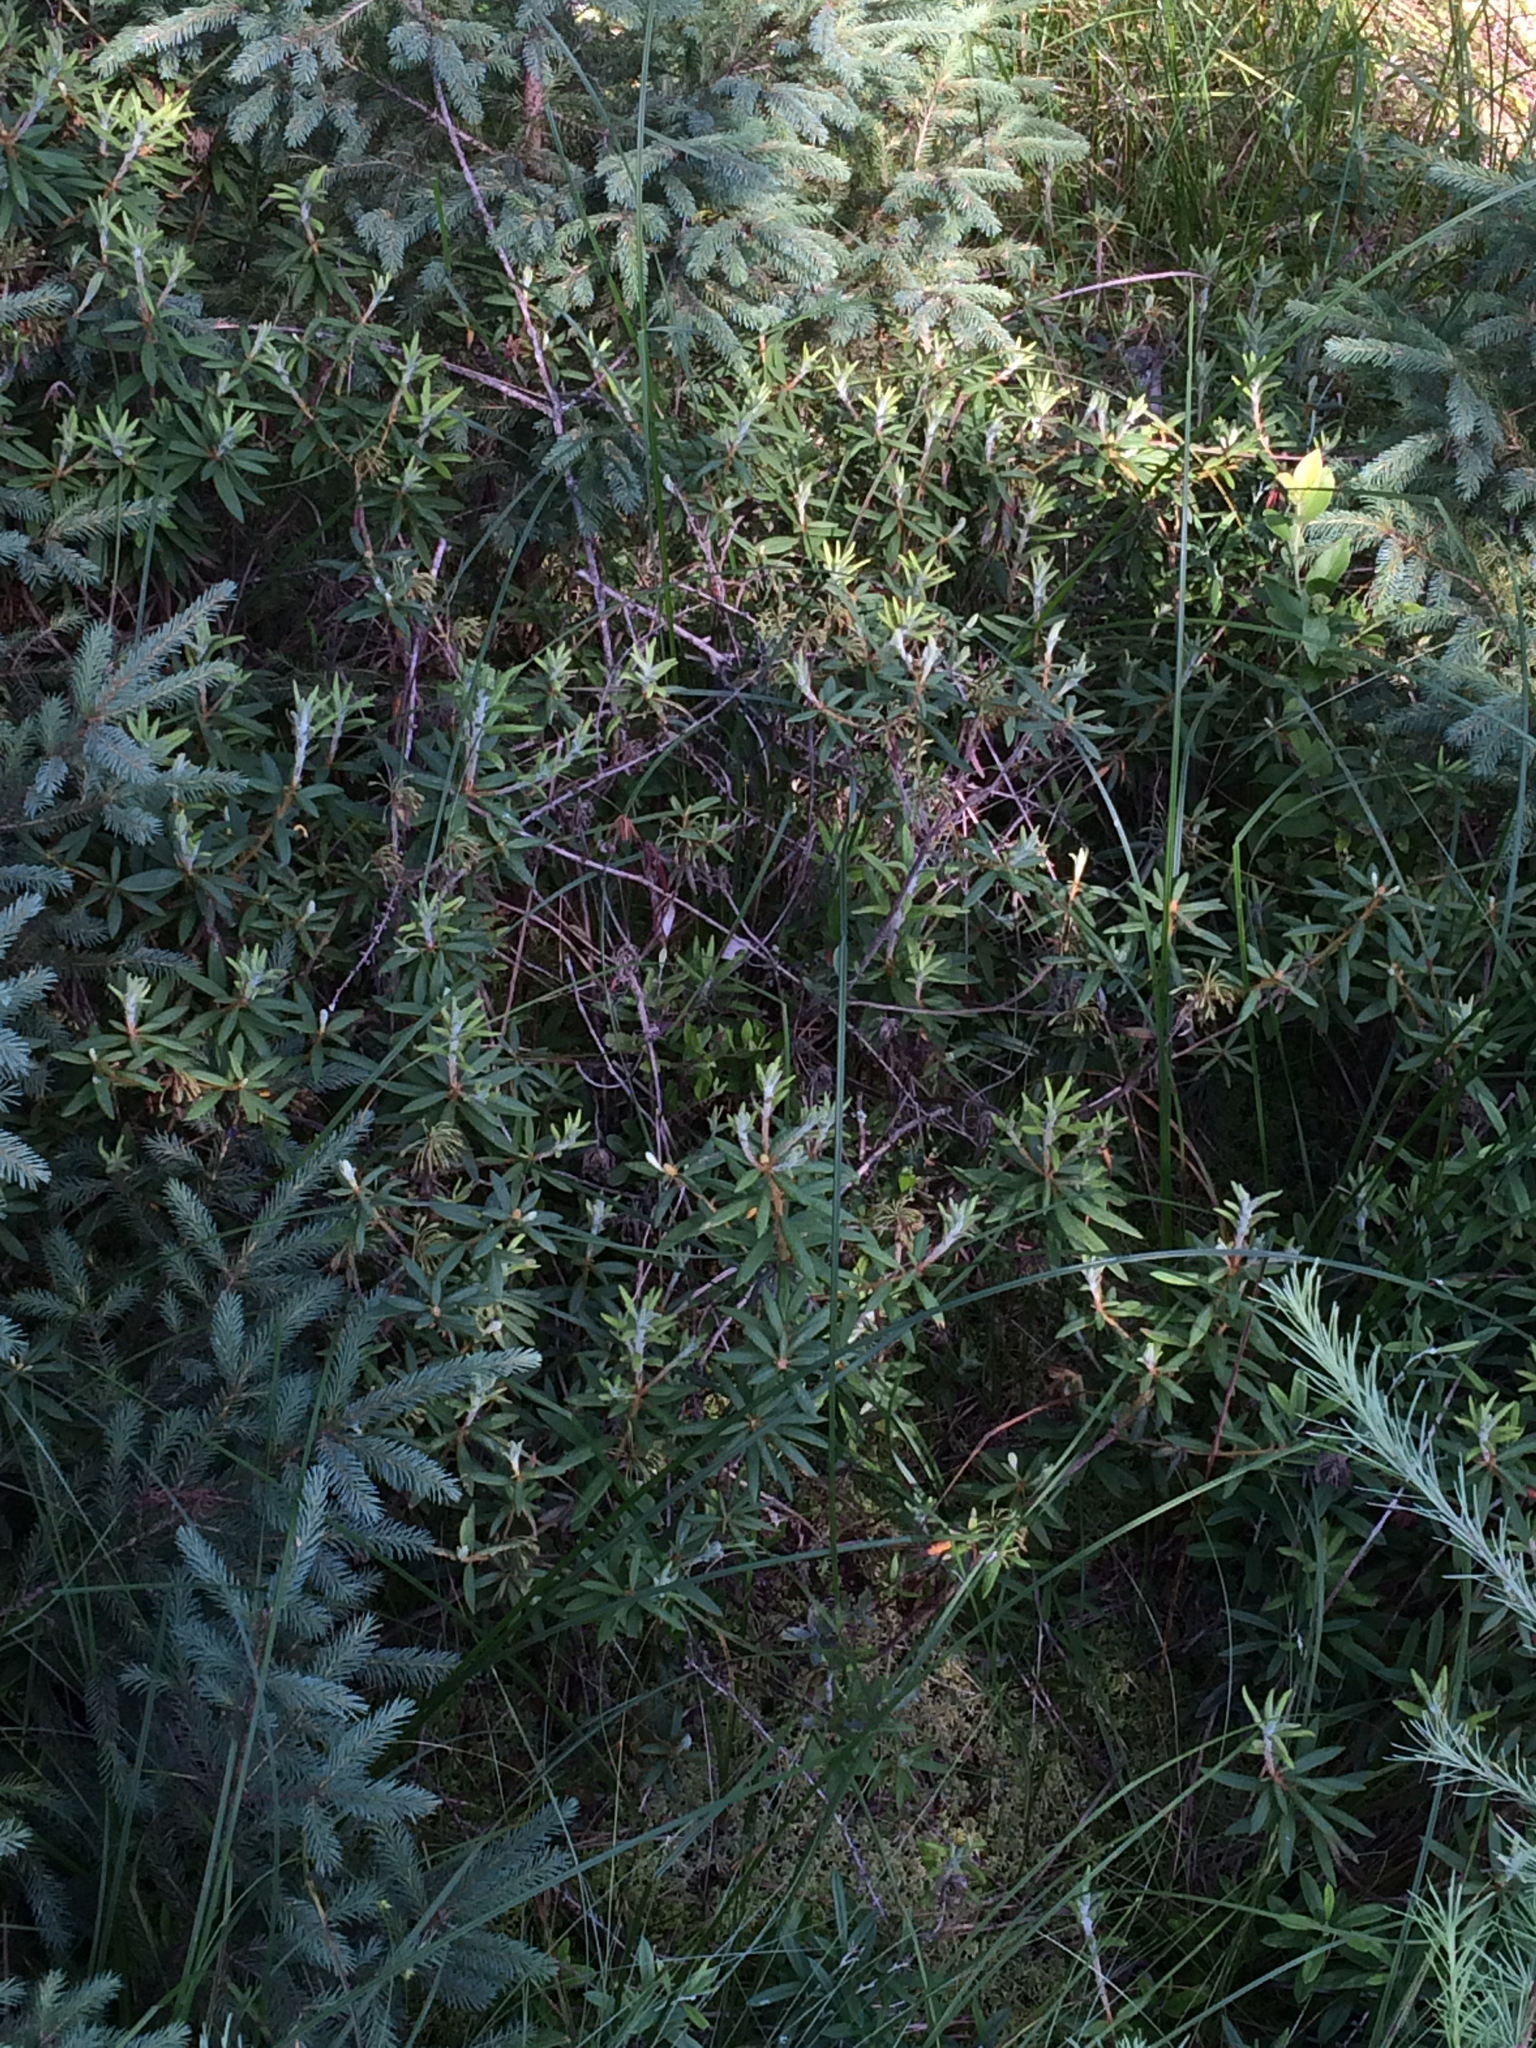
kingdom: Plantae
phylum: Tracheophyta
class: Magnoliopsida
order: Ericales
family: Ericaceae
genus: Rhododendron
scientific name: Rhododendron groenlandicum
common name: Bog labrador tea
